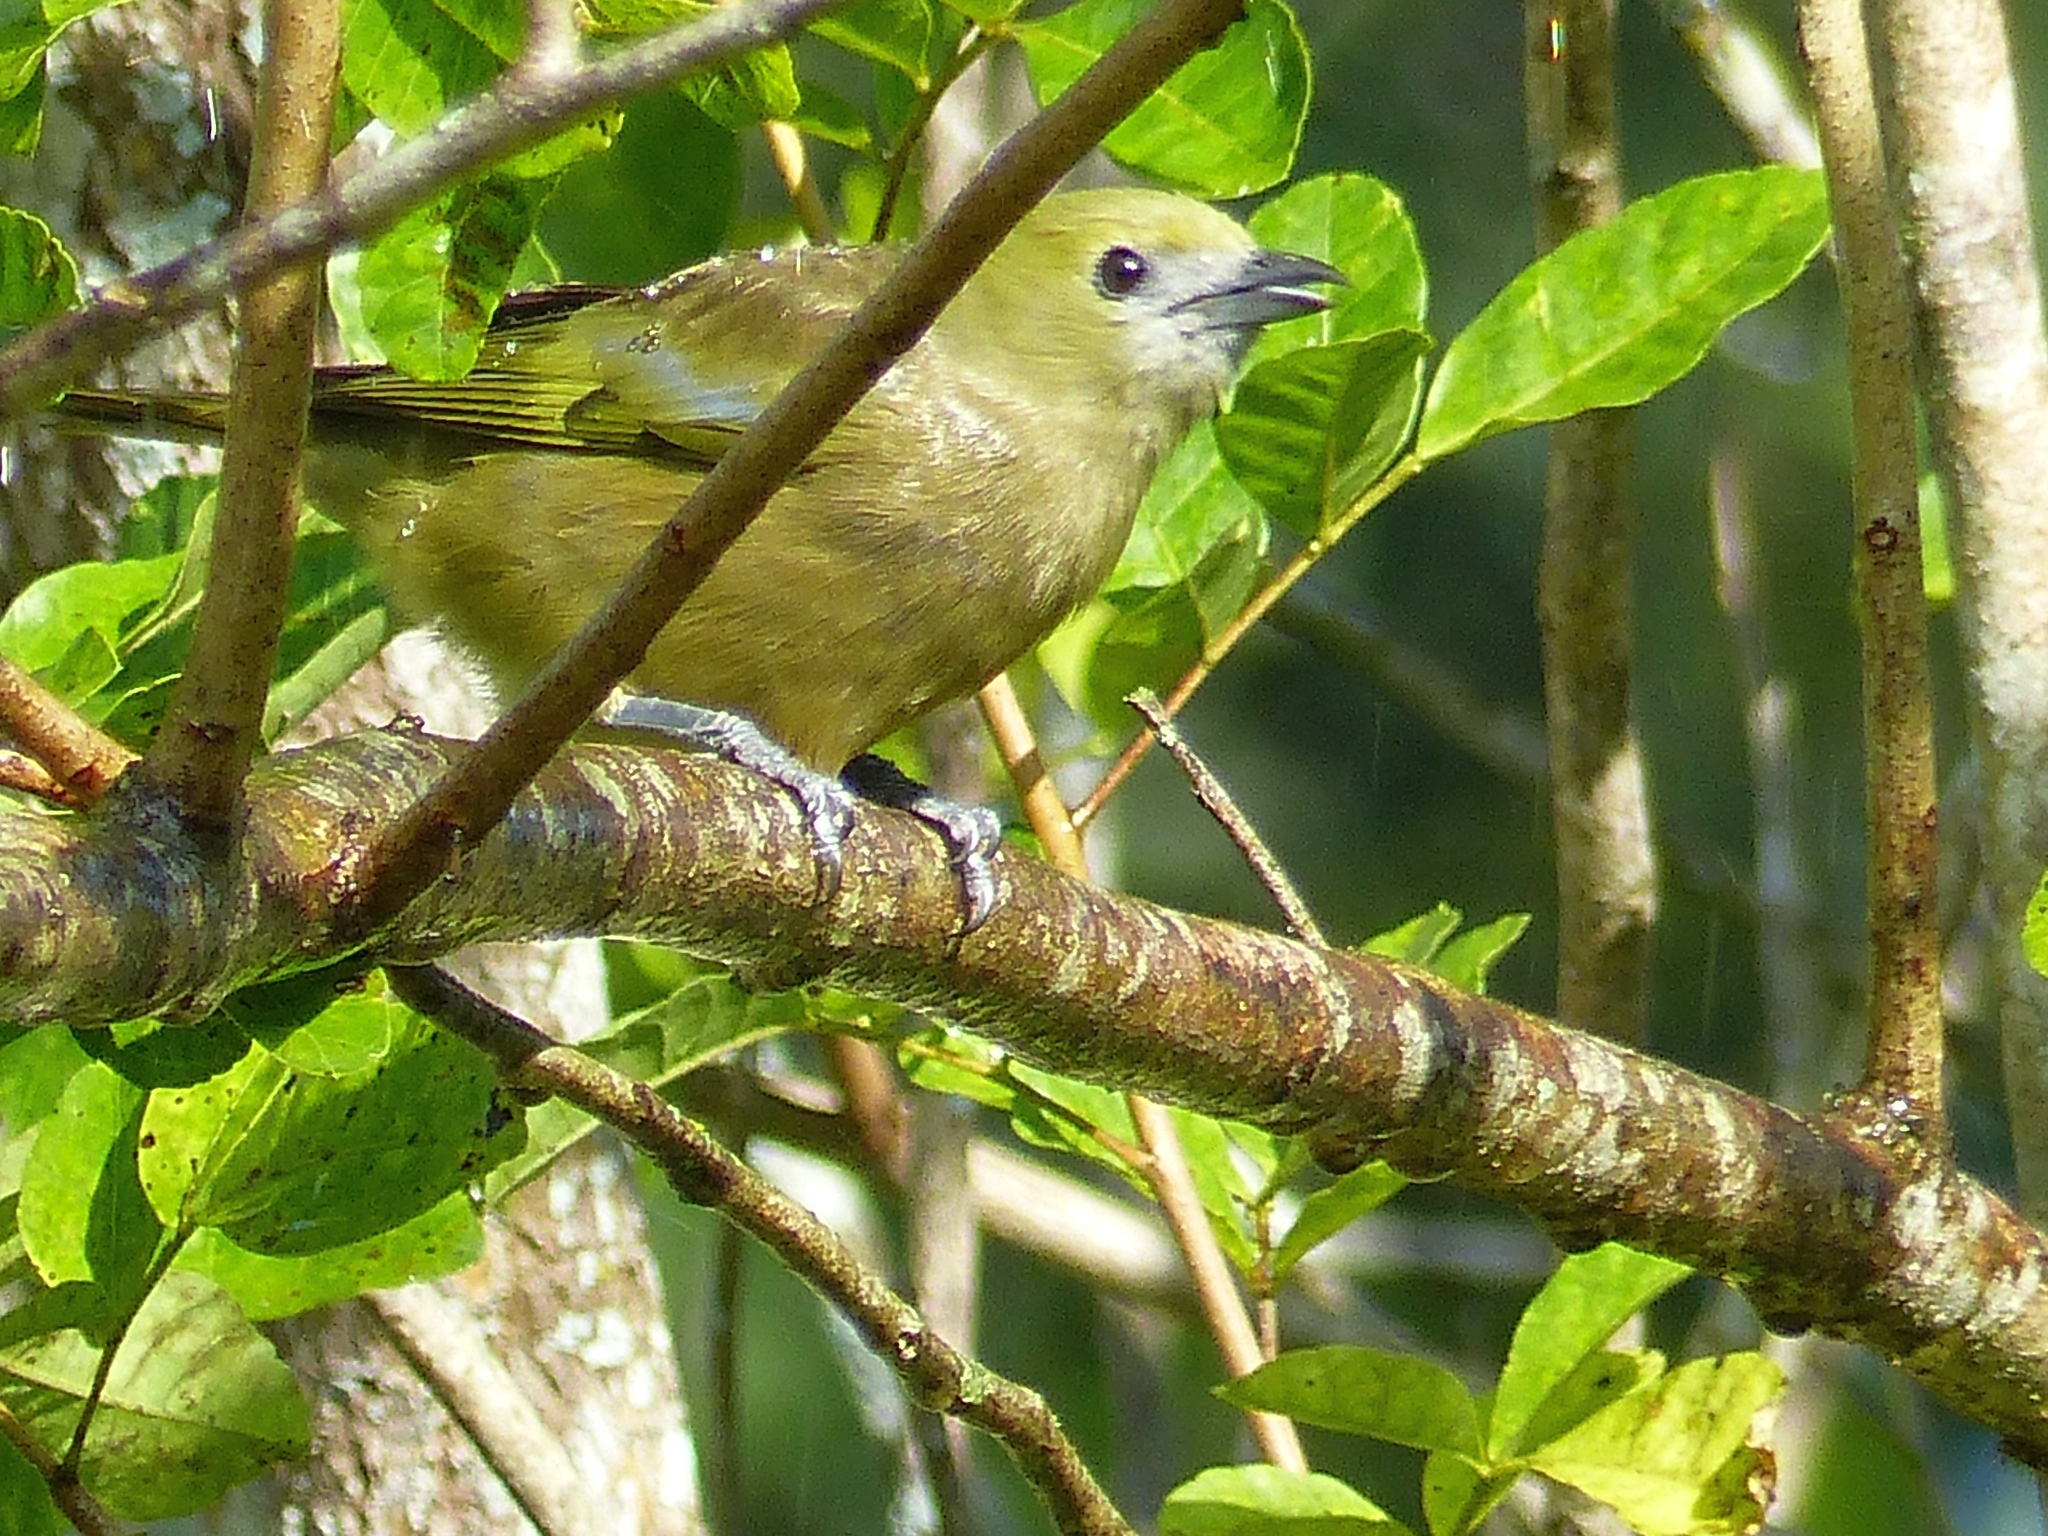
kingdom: Animalia
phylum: Chordata
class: Aves
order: Passeriformes
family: Thraupidae
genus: Thraupis
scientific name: Thraupis palmarum
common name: Palm tanager
